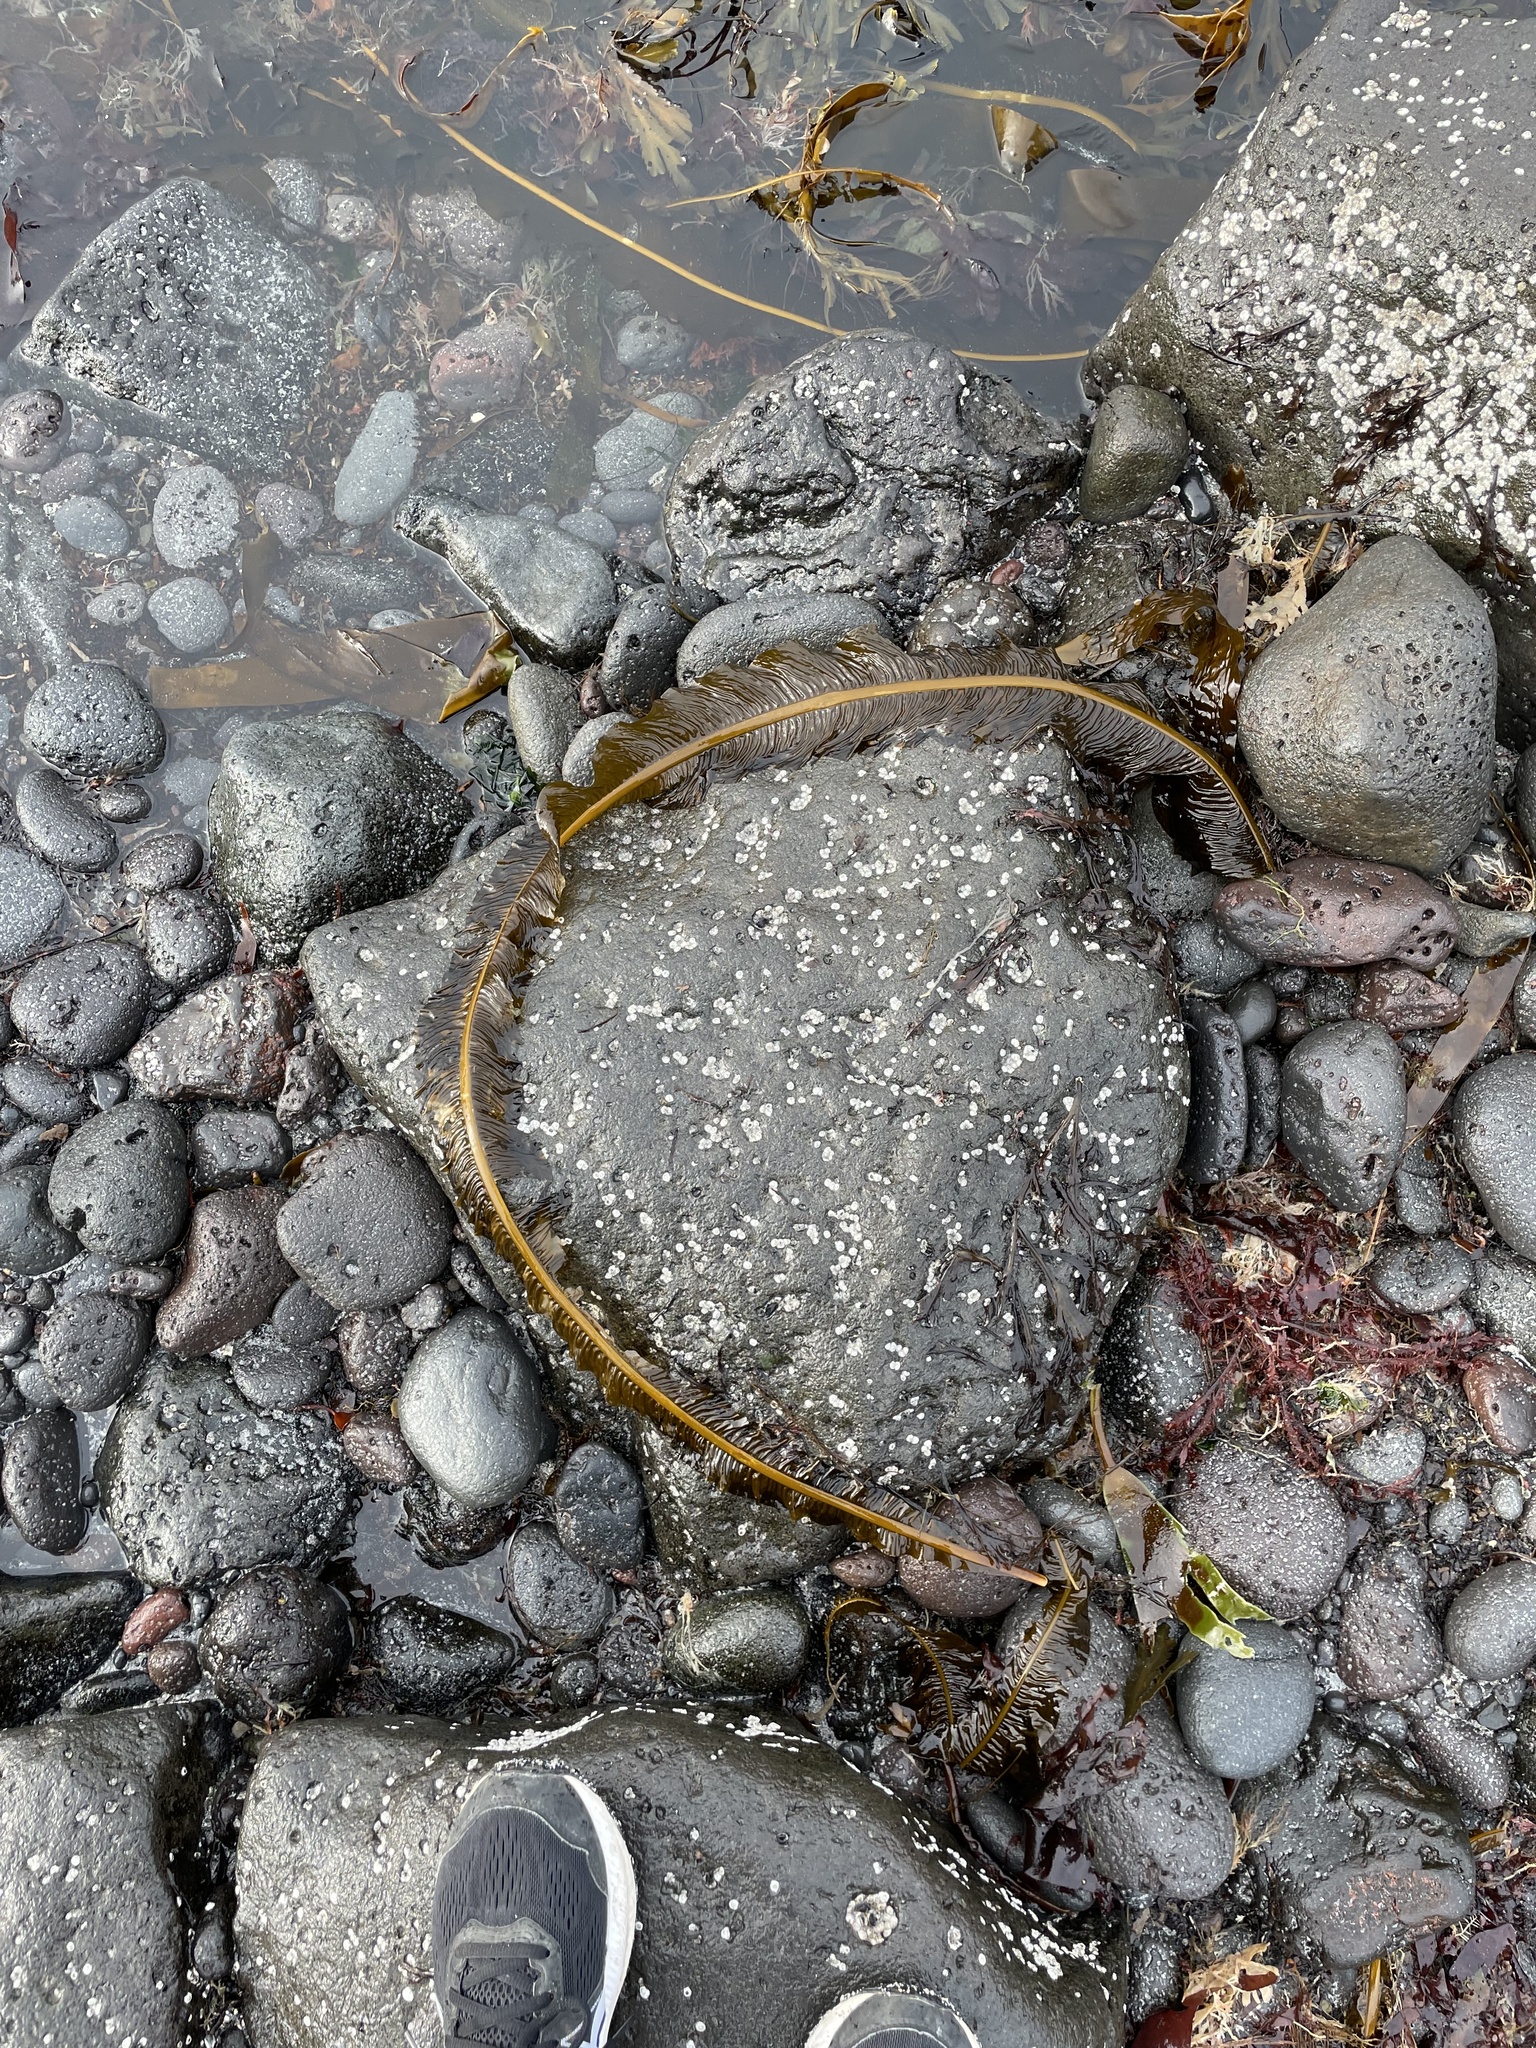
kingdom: Chromista
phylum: Ochrophyta
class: Phaeophyceae
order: Laminariales
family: Alariaceae
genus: Alaria
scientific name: Alaria esculenta
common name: Dabberlocks
